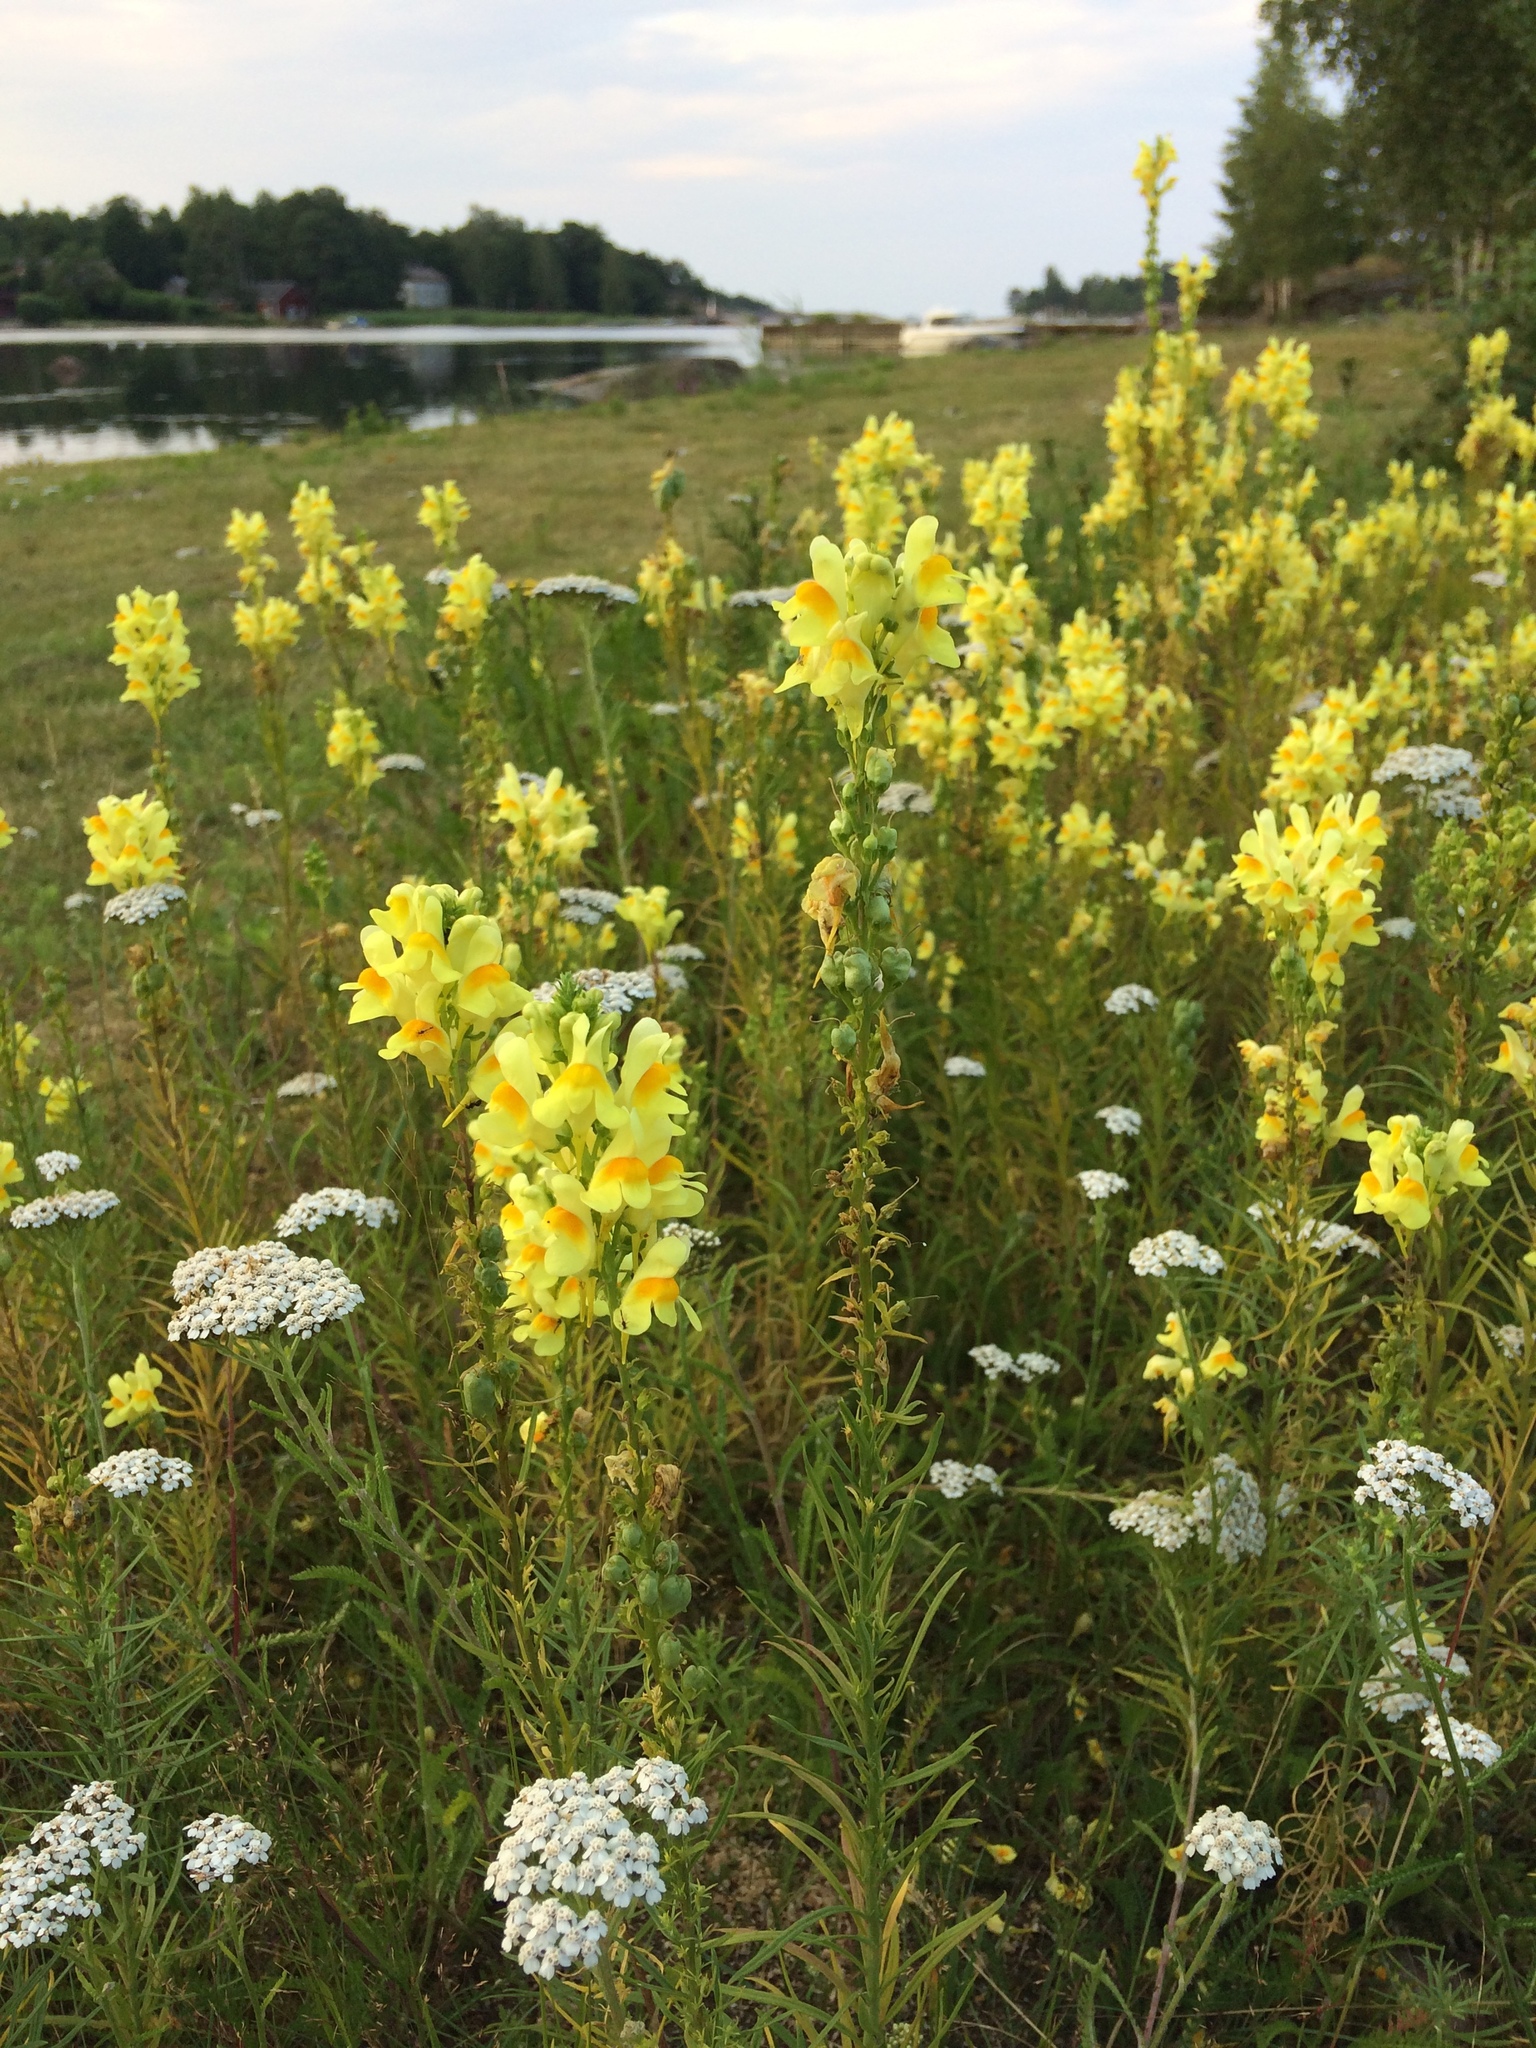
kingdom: Plantae
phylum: Tracheophyta
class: Magnoliopsida
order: Lamiales
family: Plantaginaceae
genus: Linaria
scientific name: Linaria vulgaris
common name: Butter and eggs
